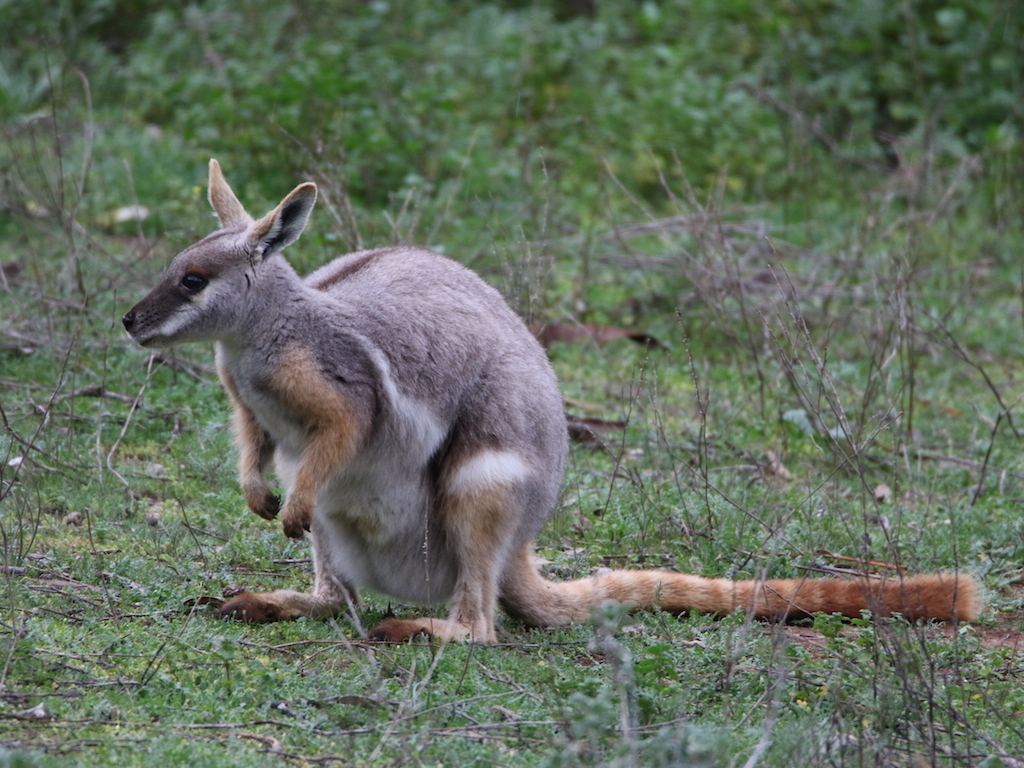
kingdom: Animalia
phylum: Chordata
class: Mammalia
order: Diprotodontia
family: Macropodidae
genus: Petrogale
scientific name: Petrogale xanthopus
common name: Yellow-footed rock-wallaby
